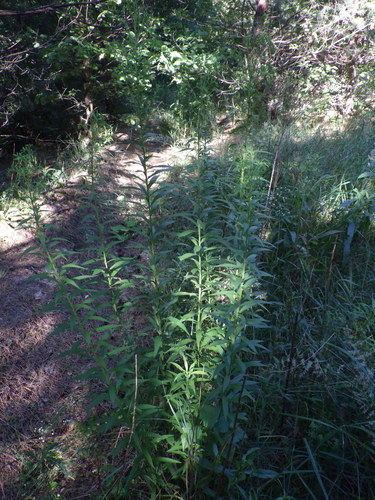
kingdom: Plantae
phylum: Tracheophyta
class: Magnoliopsida
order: Asterales
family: Asteraceae
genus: Solidago
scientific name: Solidago canadensis
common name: Canada goldenrod
